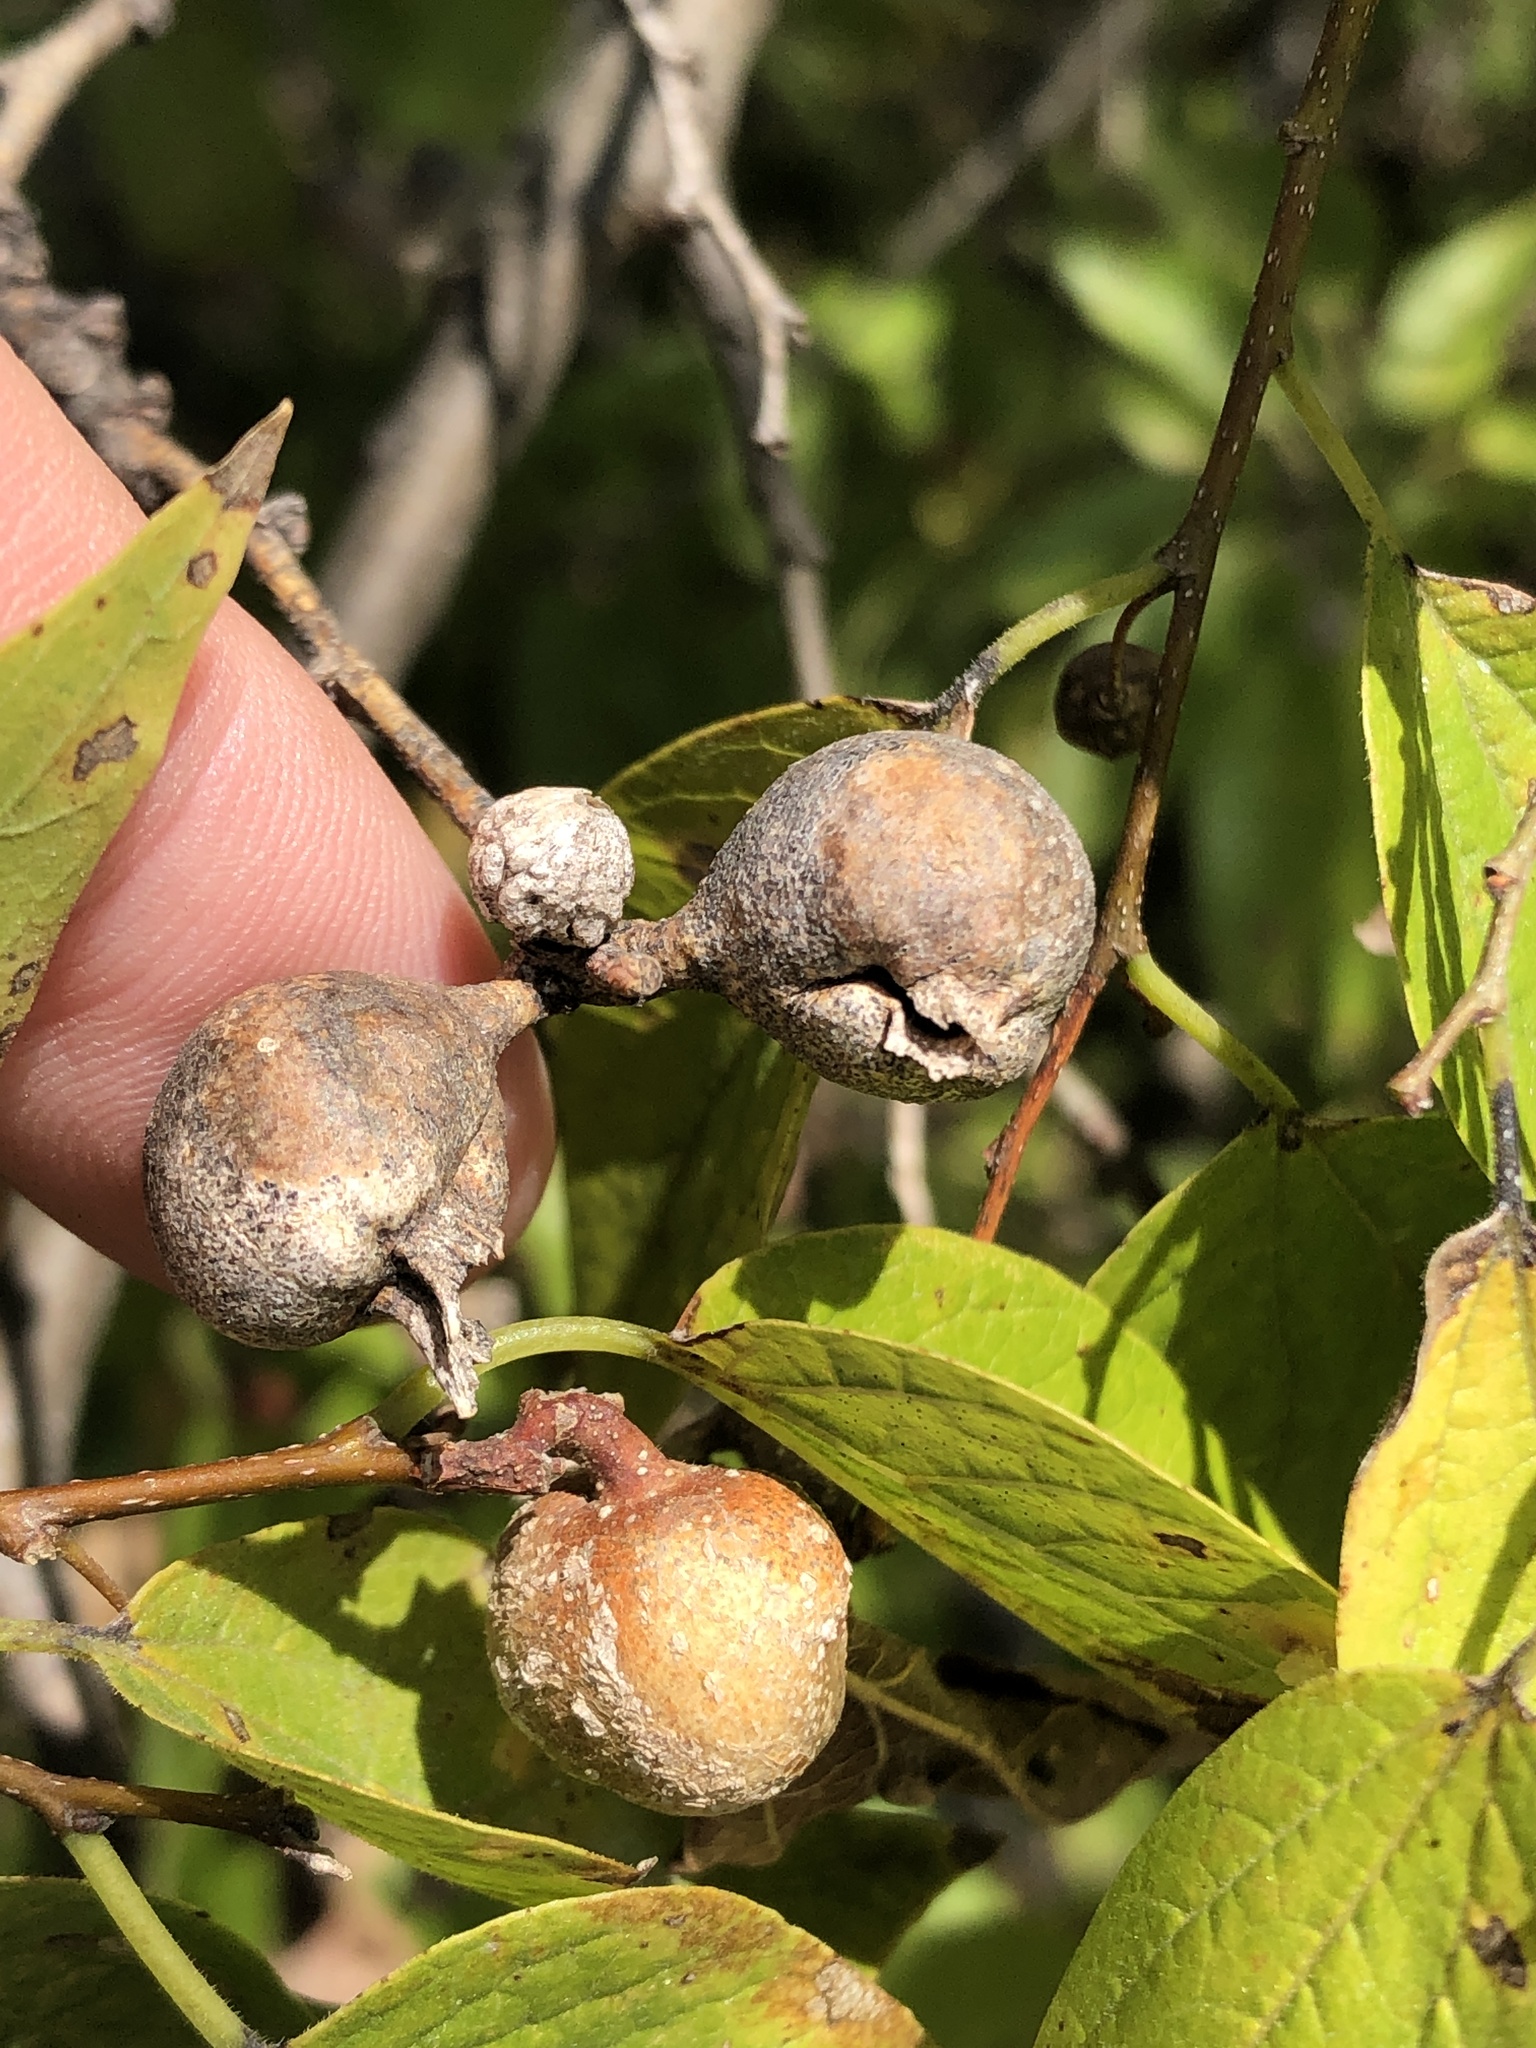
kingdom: Animalia
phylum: Arthropoda
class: Insecta
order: Hemiptera
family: Aphalaridae
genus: Pachypsylla
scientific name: Pachypsylla venusta
